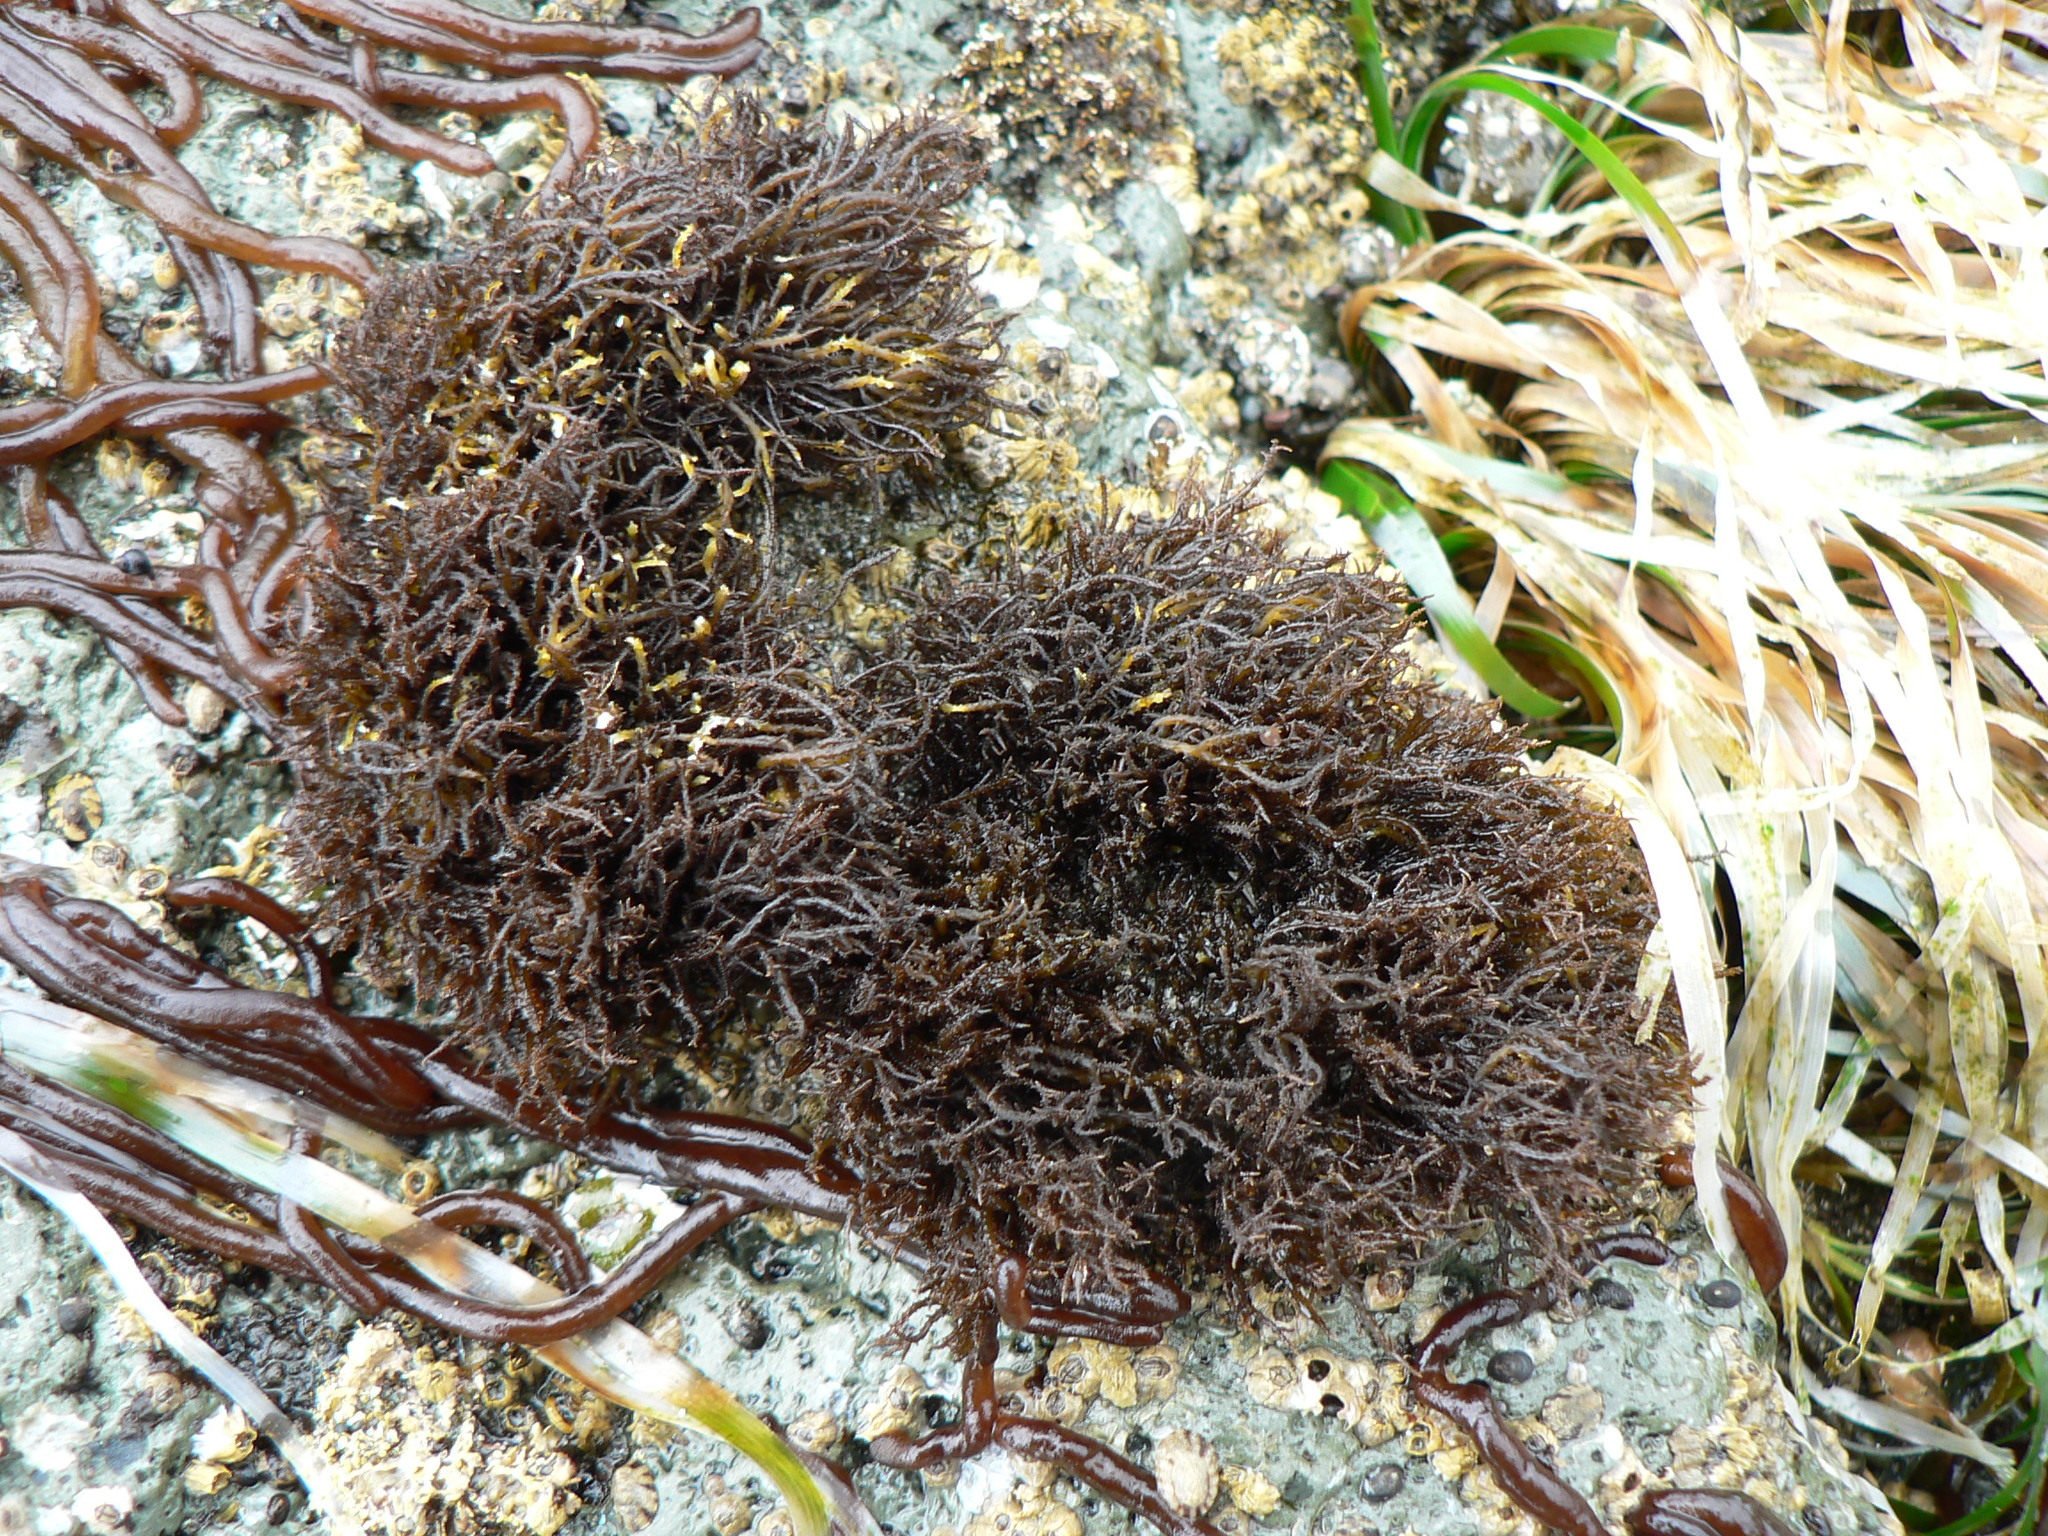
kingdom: Plantae
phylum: Rhodophyta
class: Florideophyceae
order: Gigartinales
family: Endocladiaceae
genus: Endocladia
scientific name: Endocladia muricata
